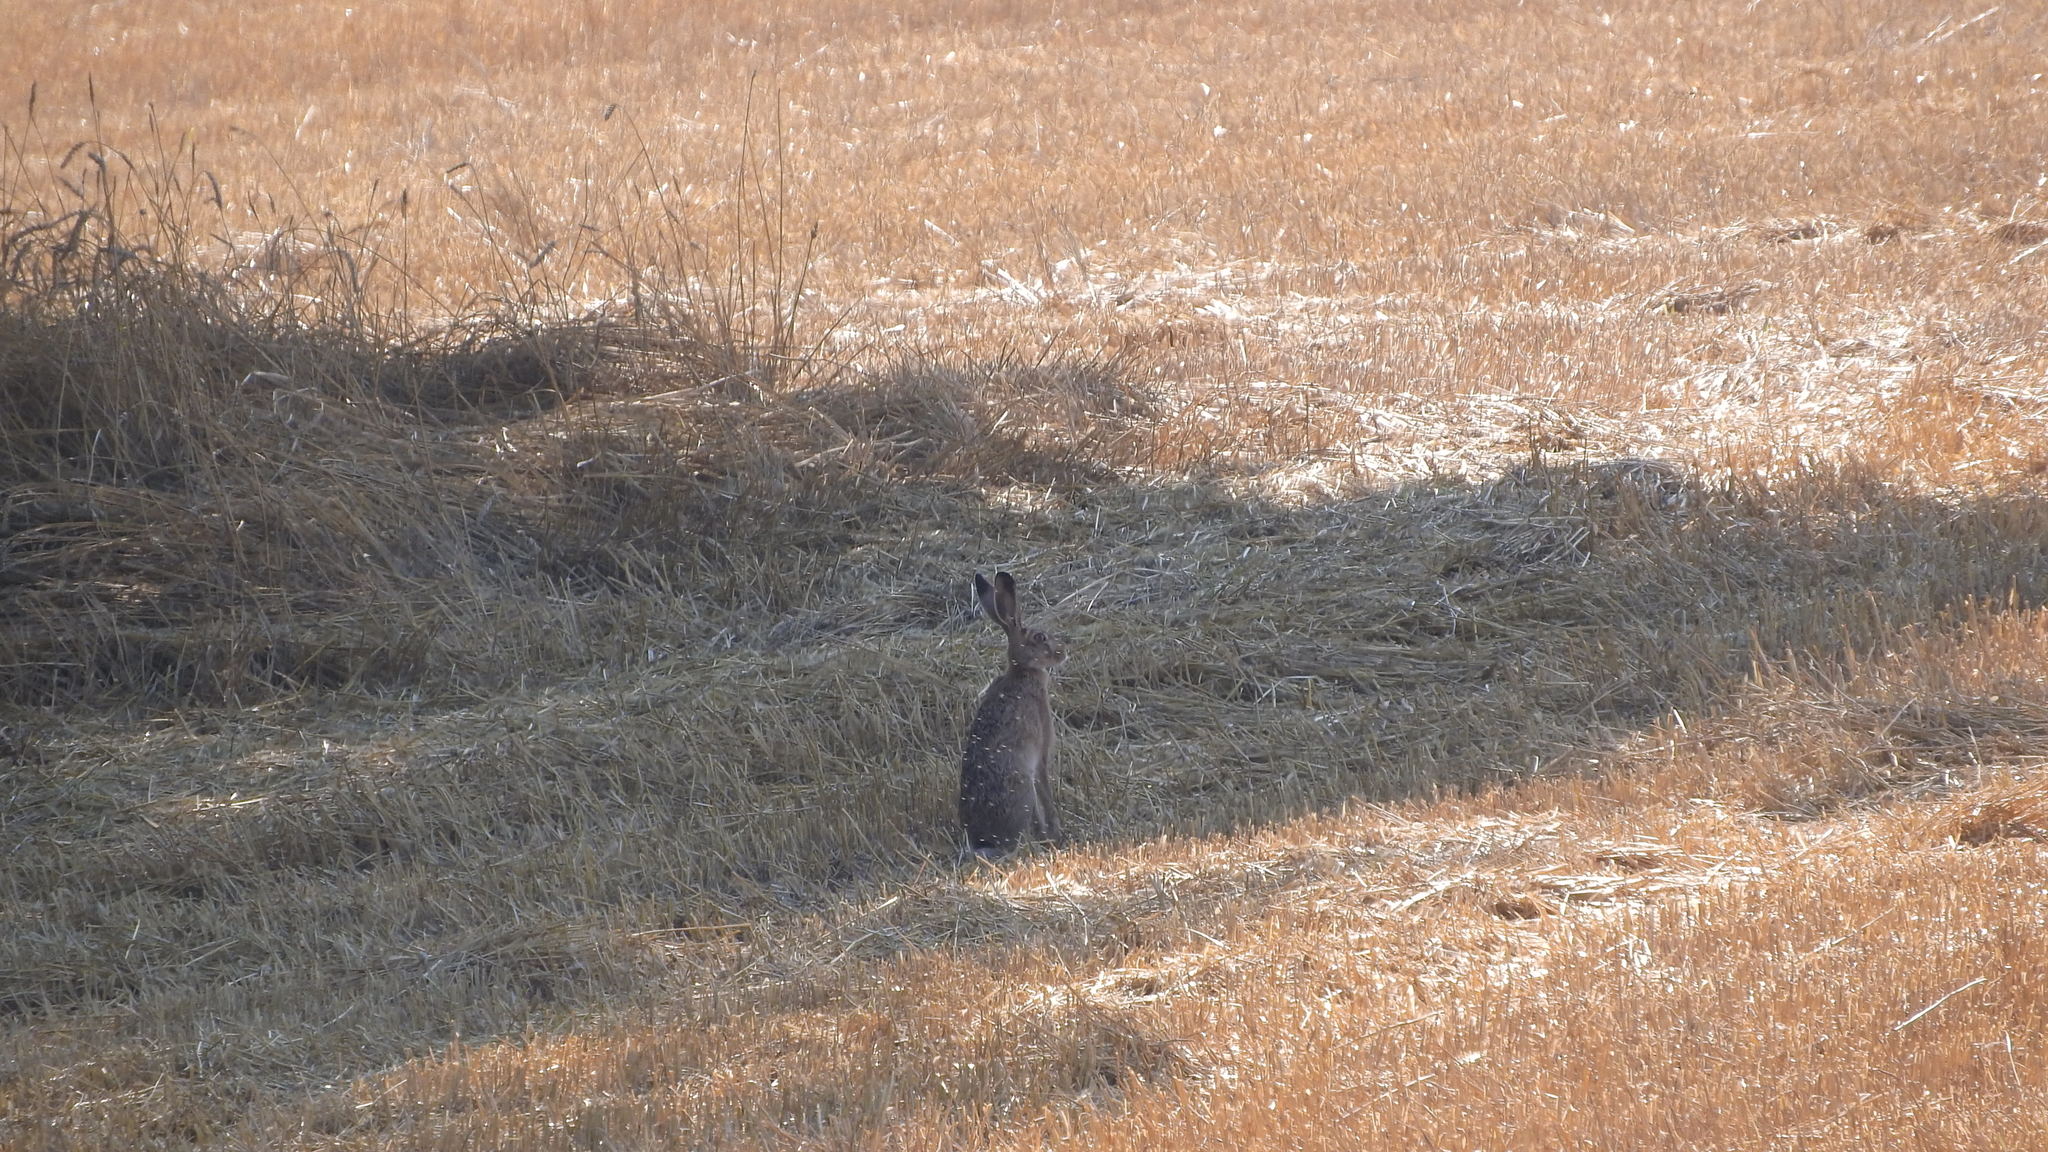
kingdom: Animalia
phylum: Chordata
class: Mammalia
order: Lagomorpha
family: Leporidae
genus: Lepus
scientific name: Lepus europaeus
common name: European hare
